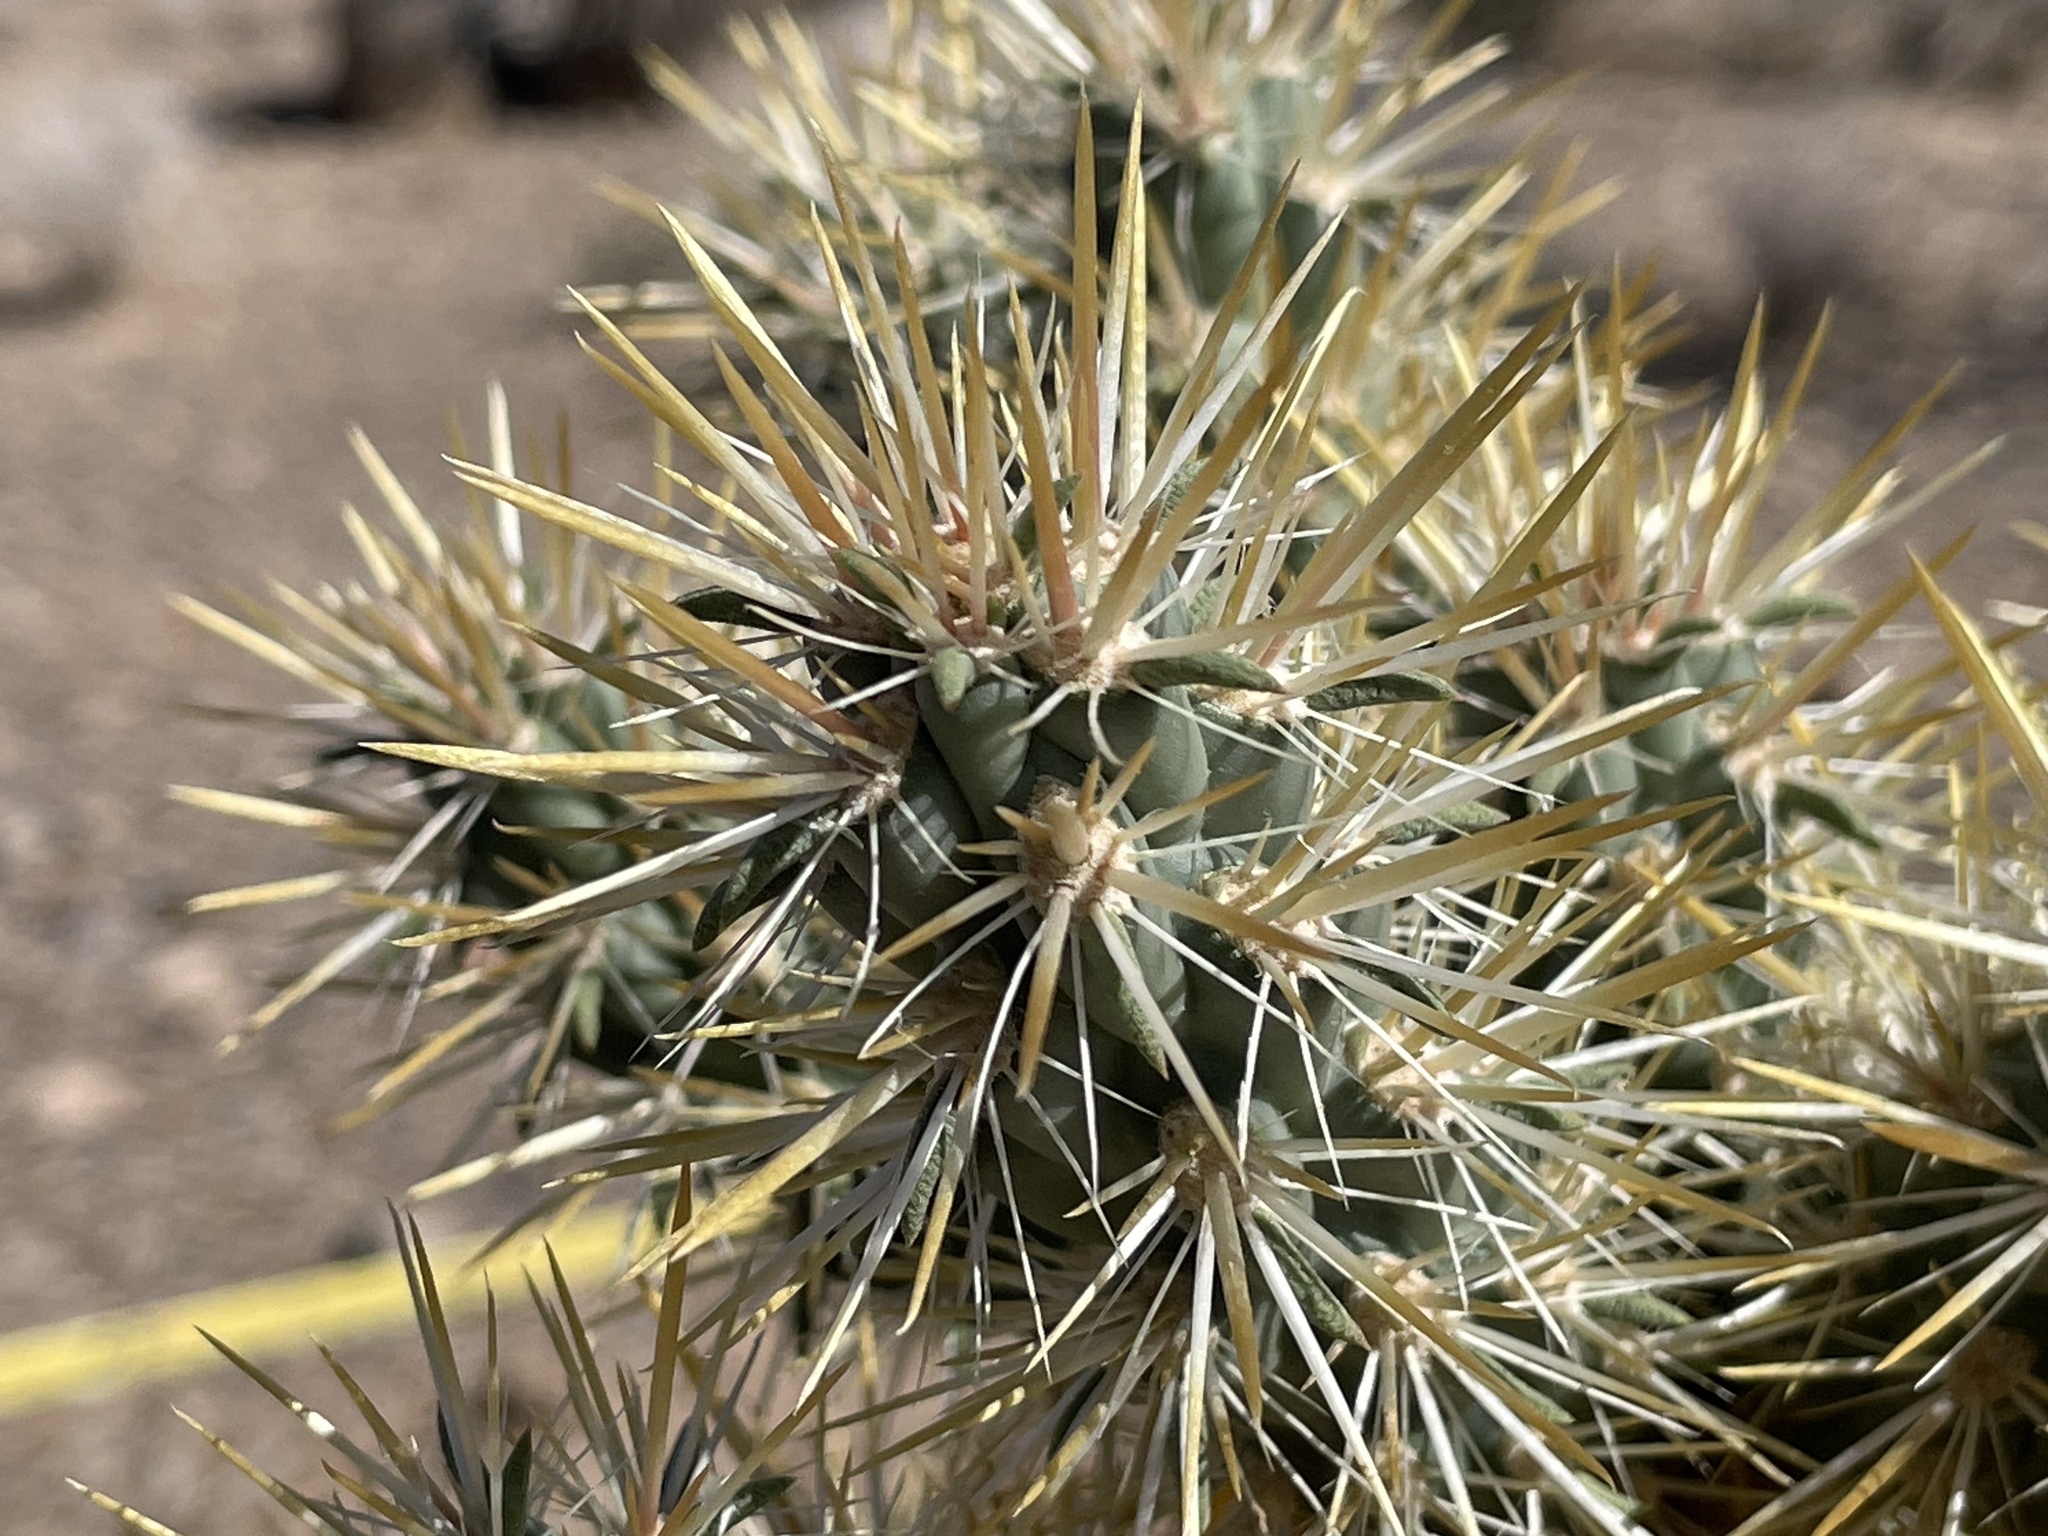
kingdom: Plantae
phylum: Tracheophyta
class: Magnoliopsida
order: Caryophyllales
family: Cactaceae
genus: Cylindropuntia
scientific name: Cylindropuntia echinocarpa
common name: Ground cholla
